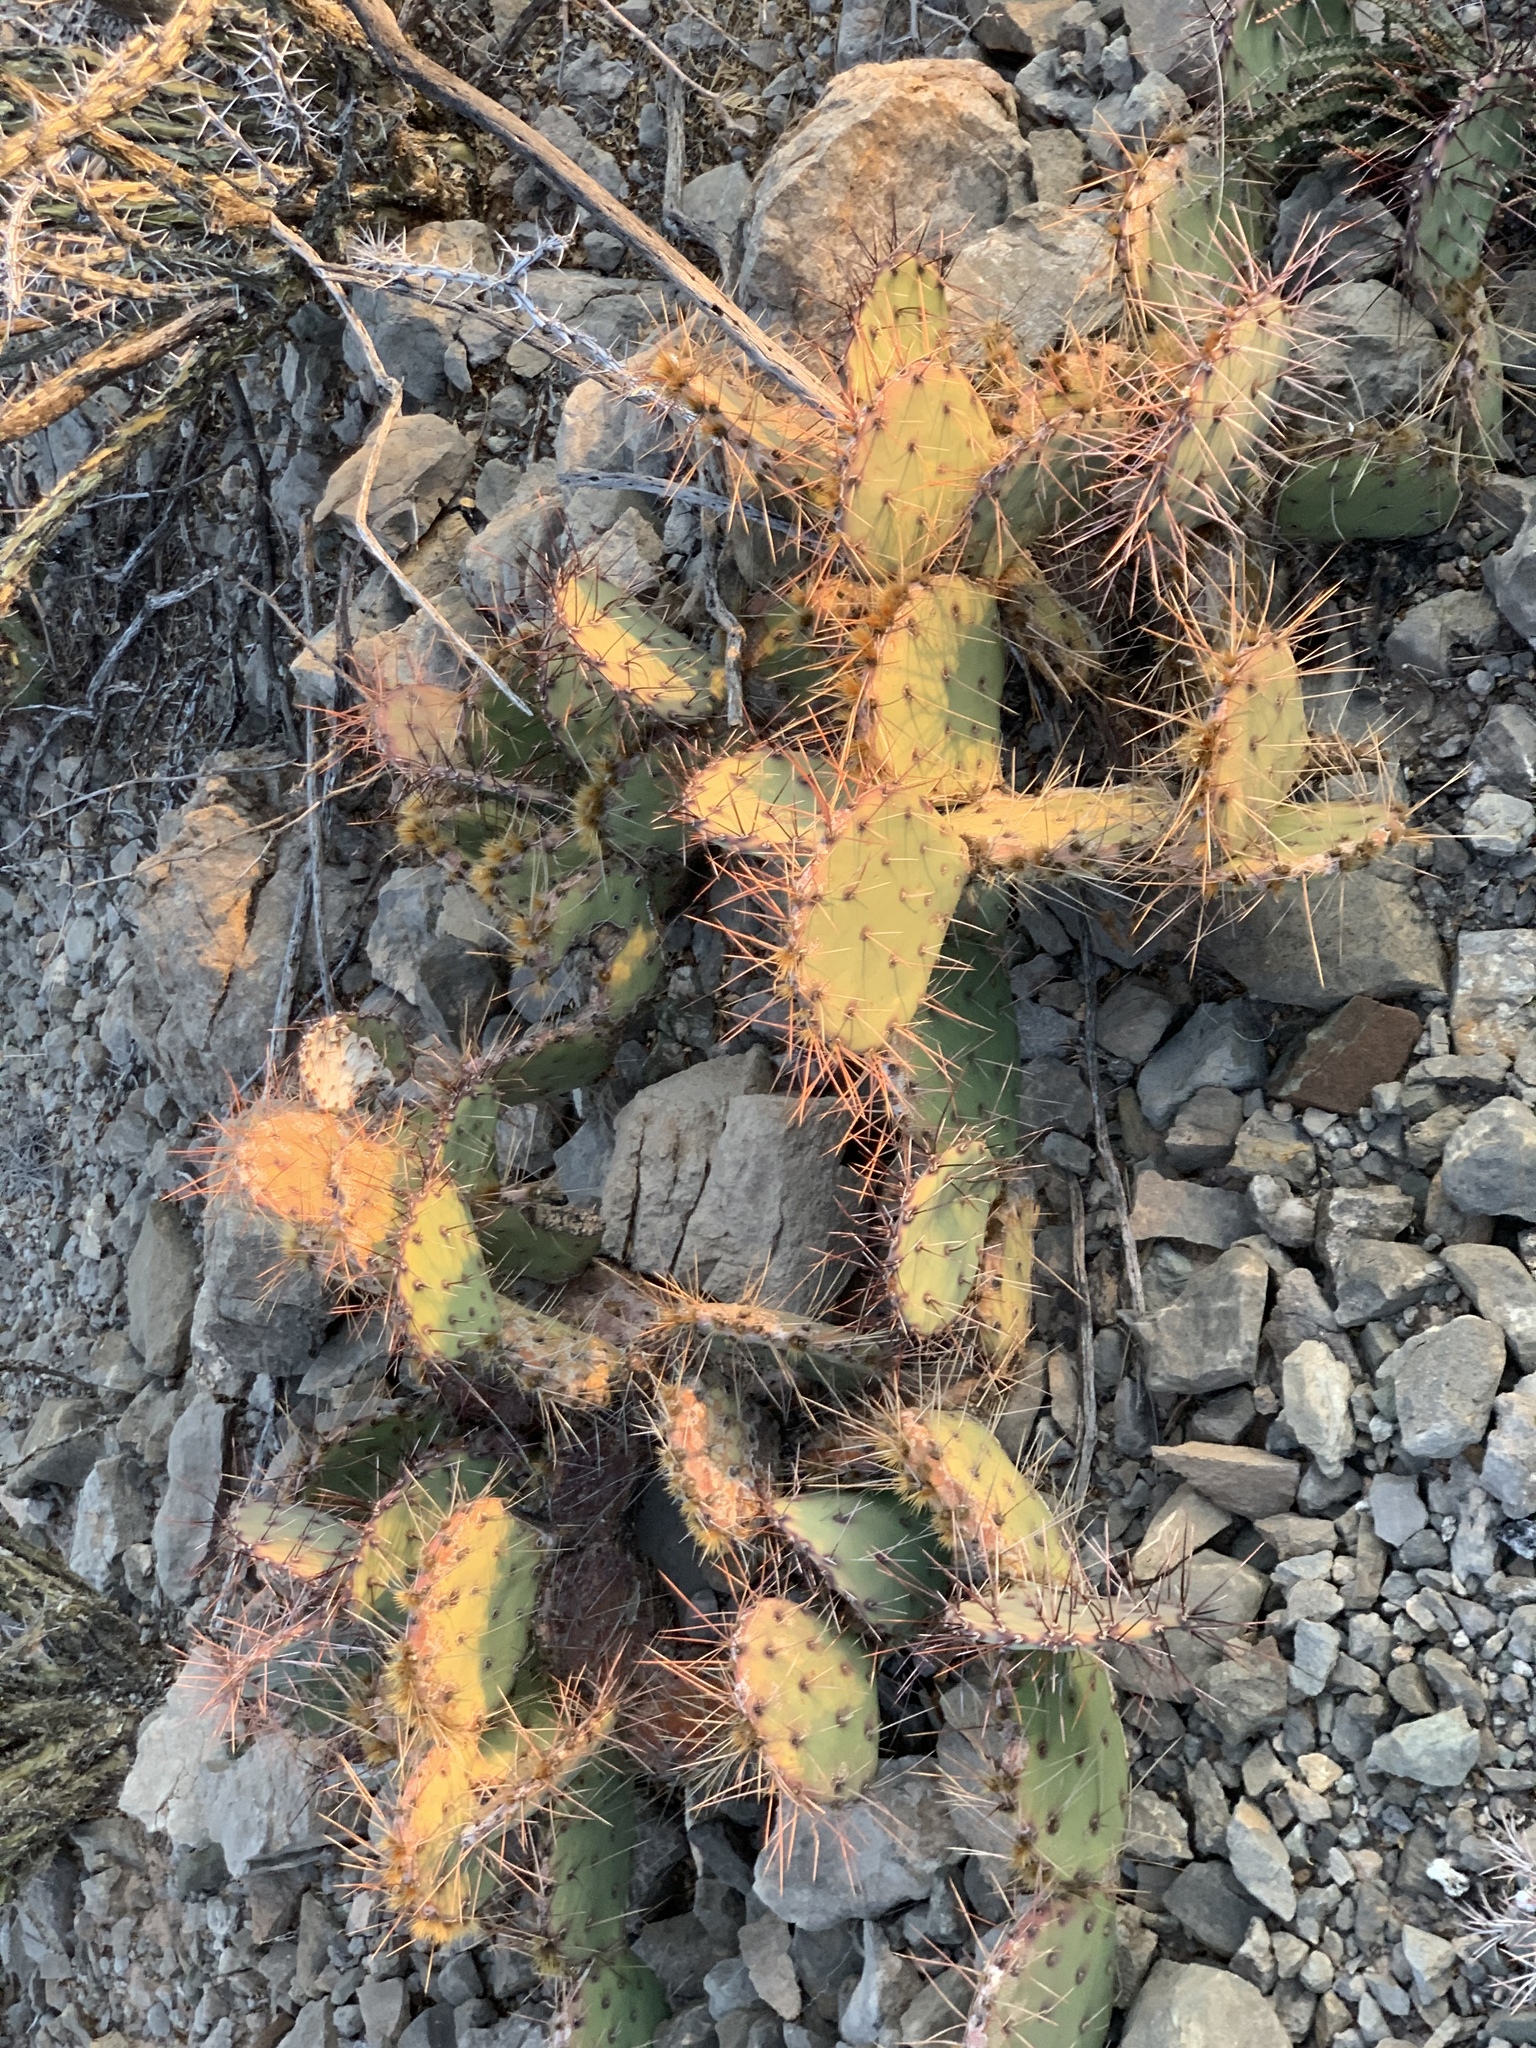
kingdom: Plantae
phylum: Tracheophyta
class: Magnoliopsida
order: Caryophyllales
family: Cactaceae
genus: Opuntia
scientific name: Opuntia phaeacantha
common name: New mexico prickly-pear
